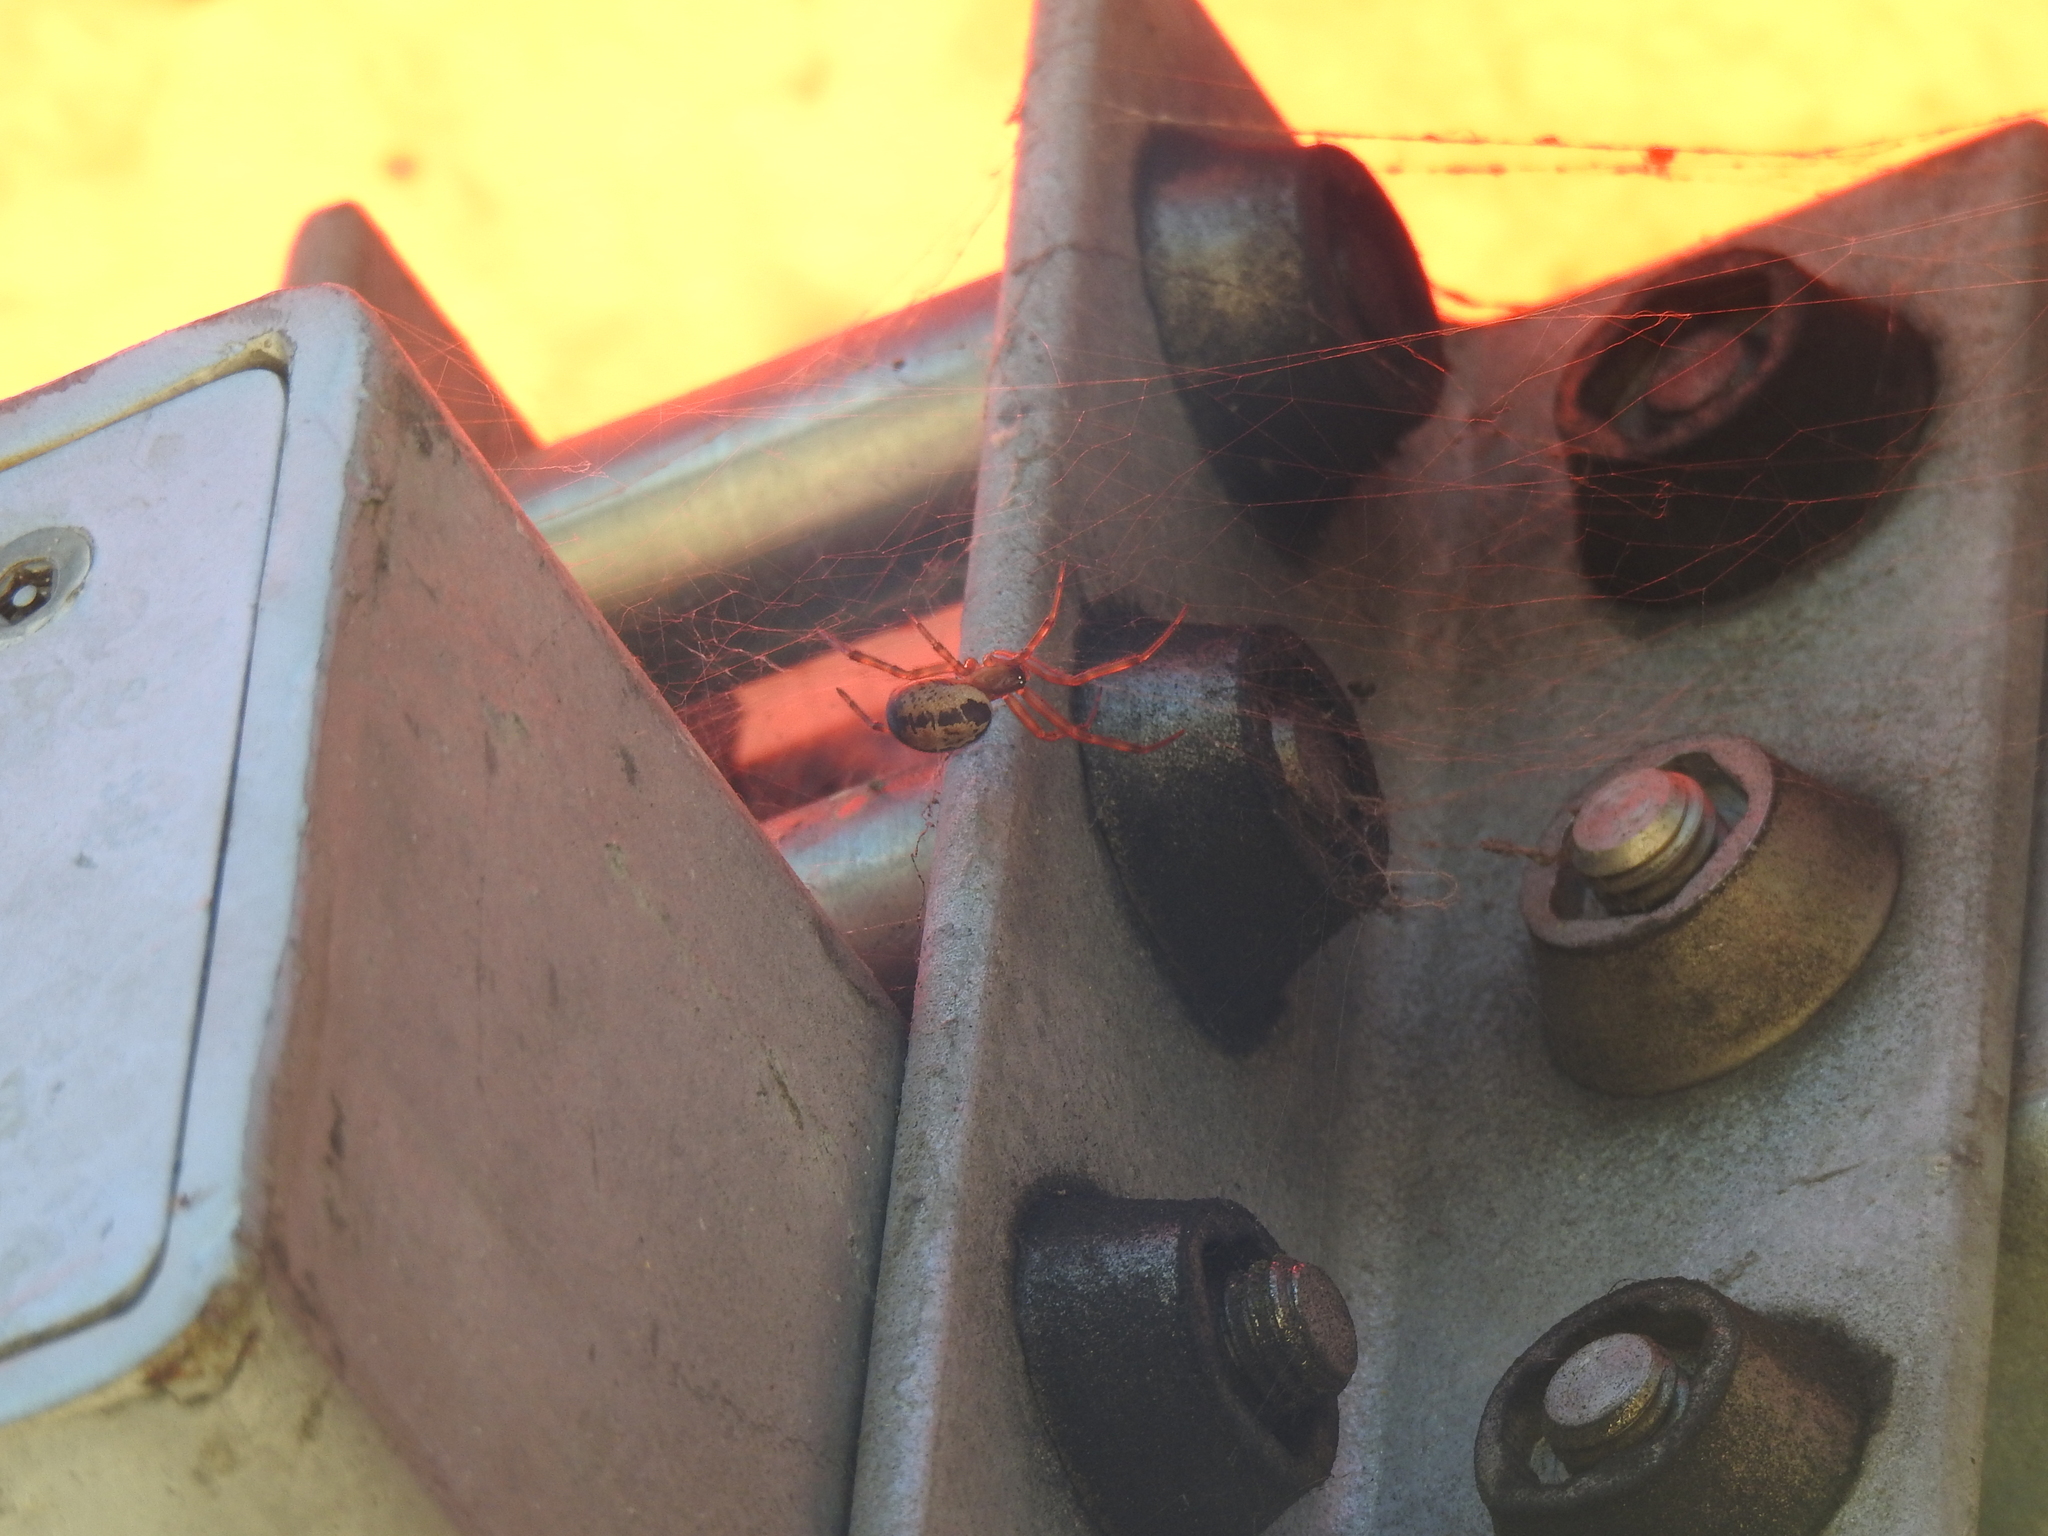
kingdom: Animalia
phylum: Arthropoda
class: Arachnida
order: Araneae
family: Theridiidae
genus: Steatoda
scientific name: Steatoda nobilis
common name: Cobweb weaver
